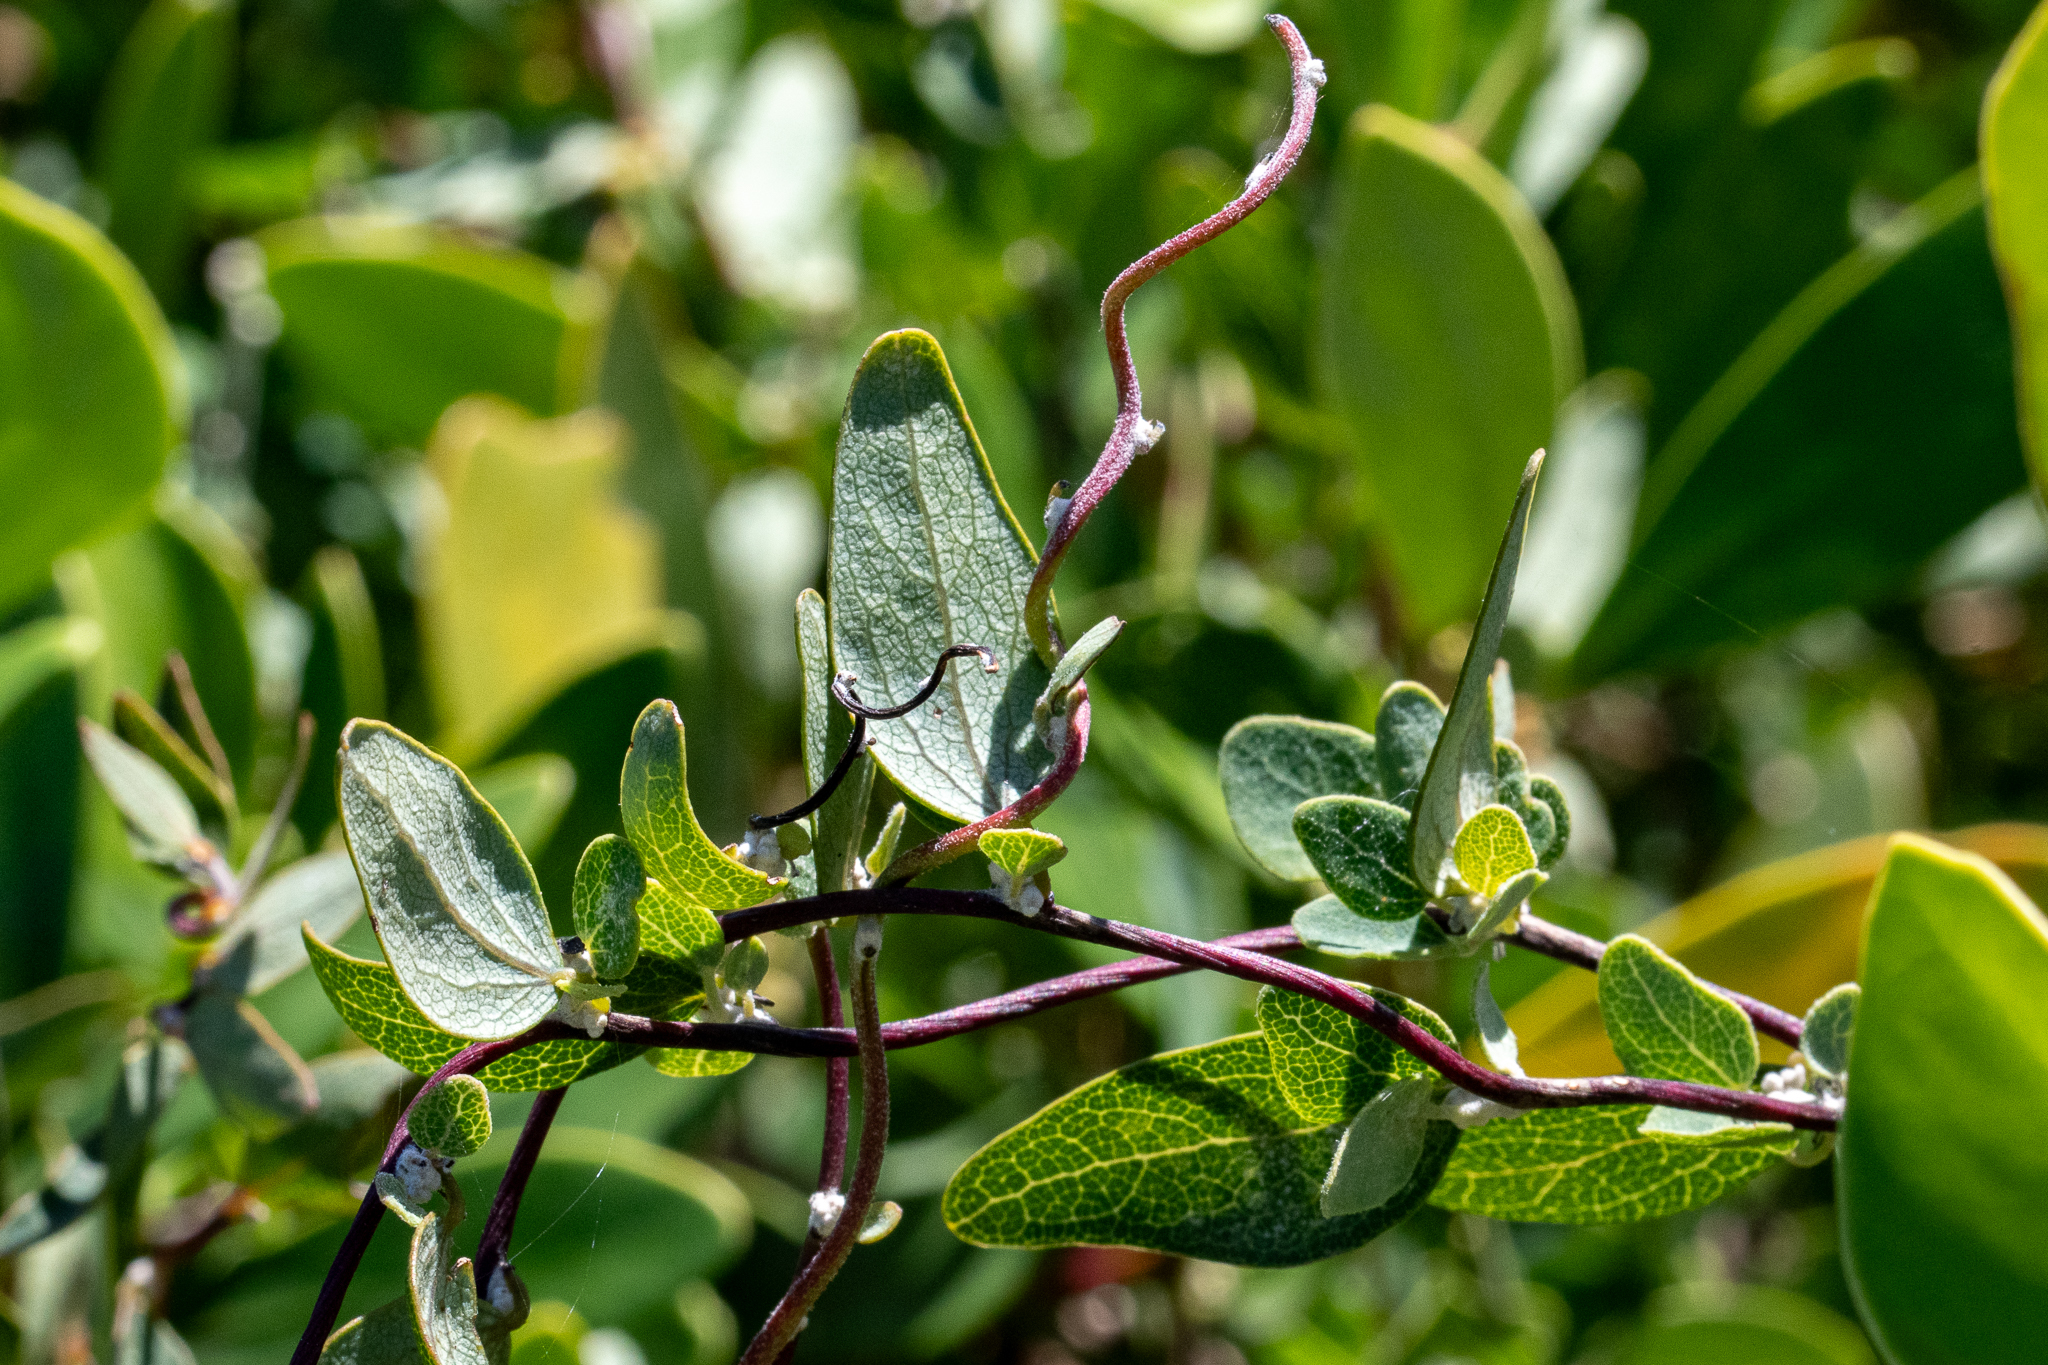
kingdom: Plantae
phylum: Tracheophyta
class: Magnoliopsida
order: Ranunculales
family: Menispermaceae
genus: Cissampelos
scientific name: Cissampelos capensis
